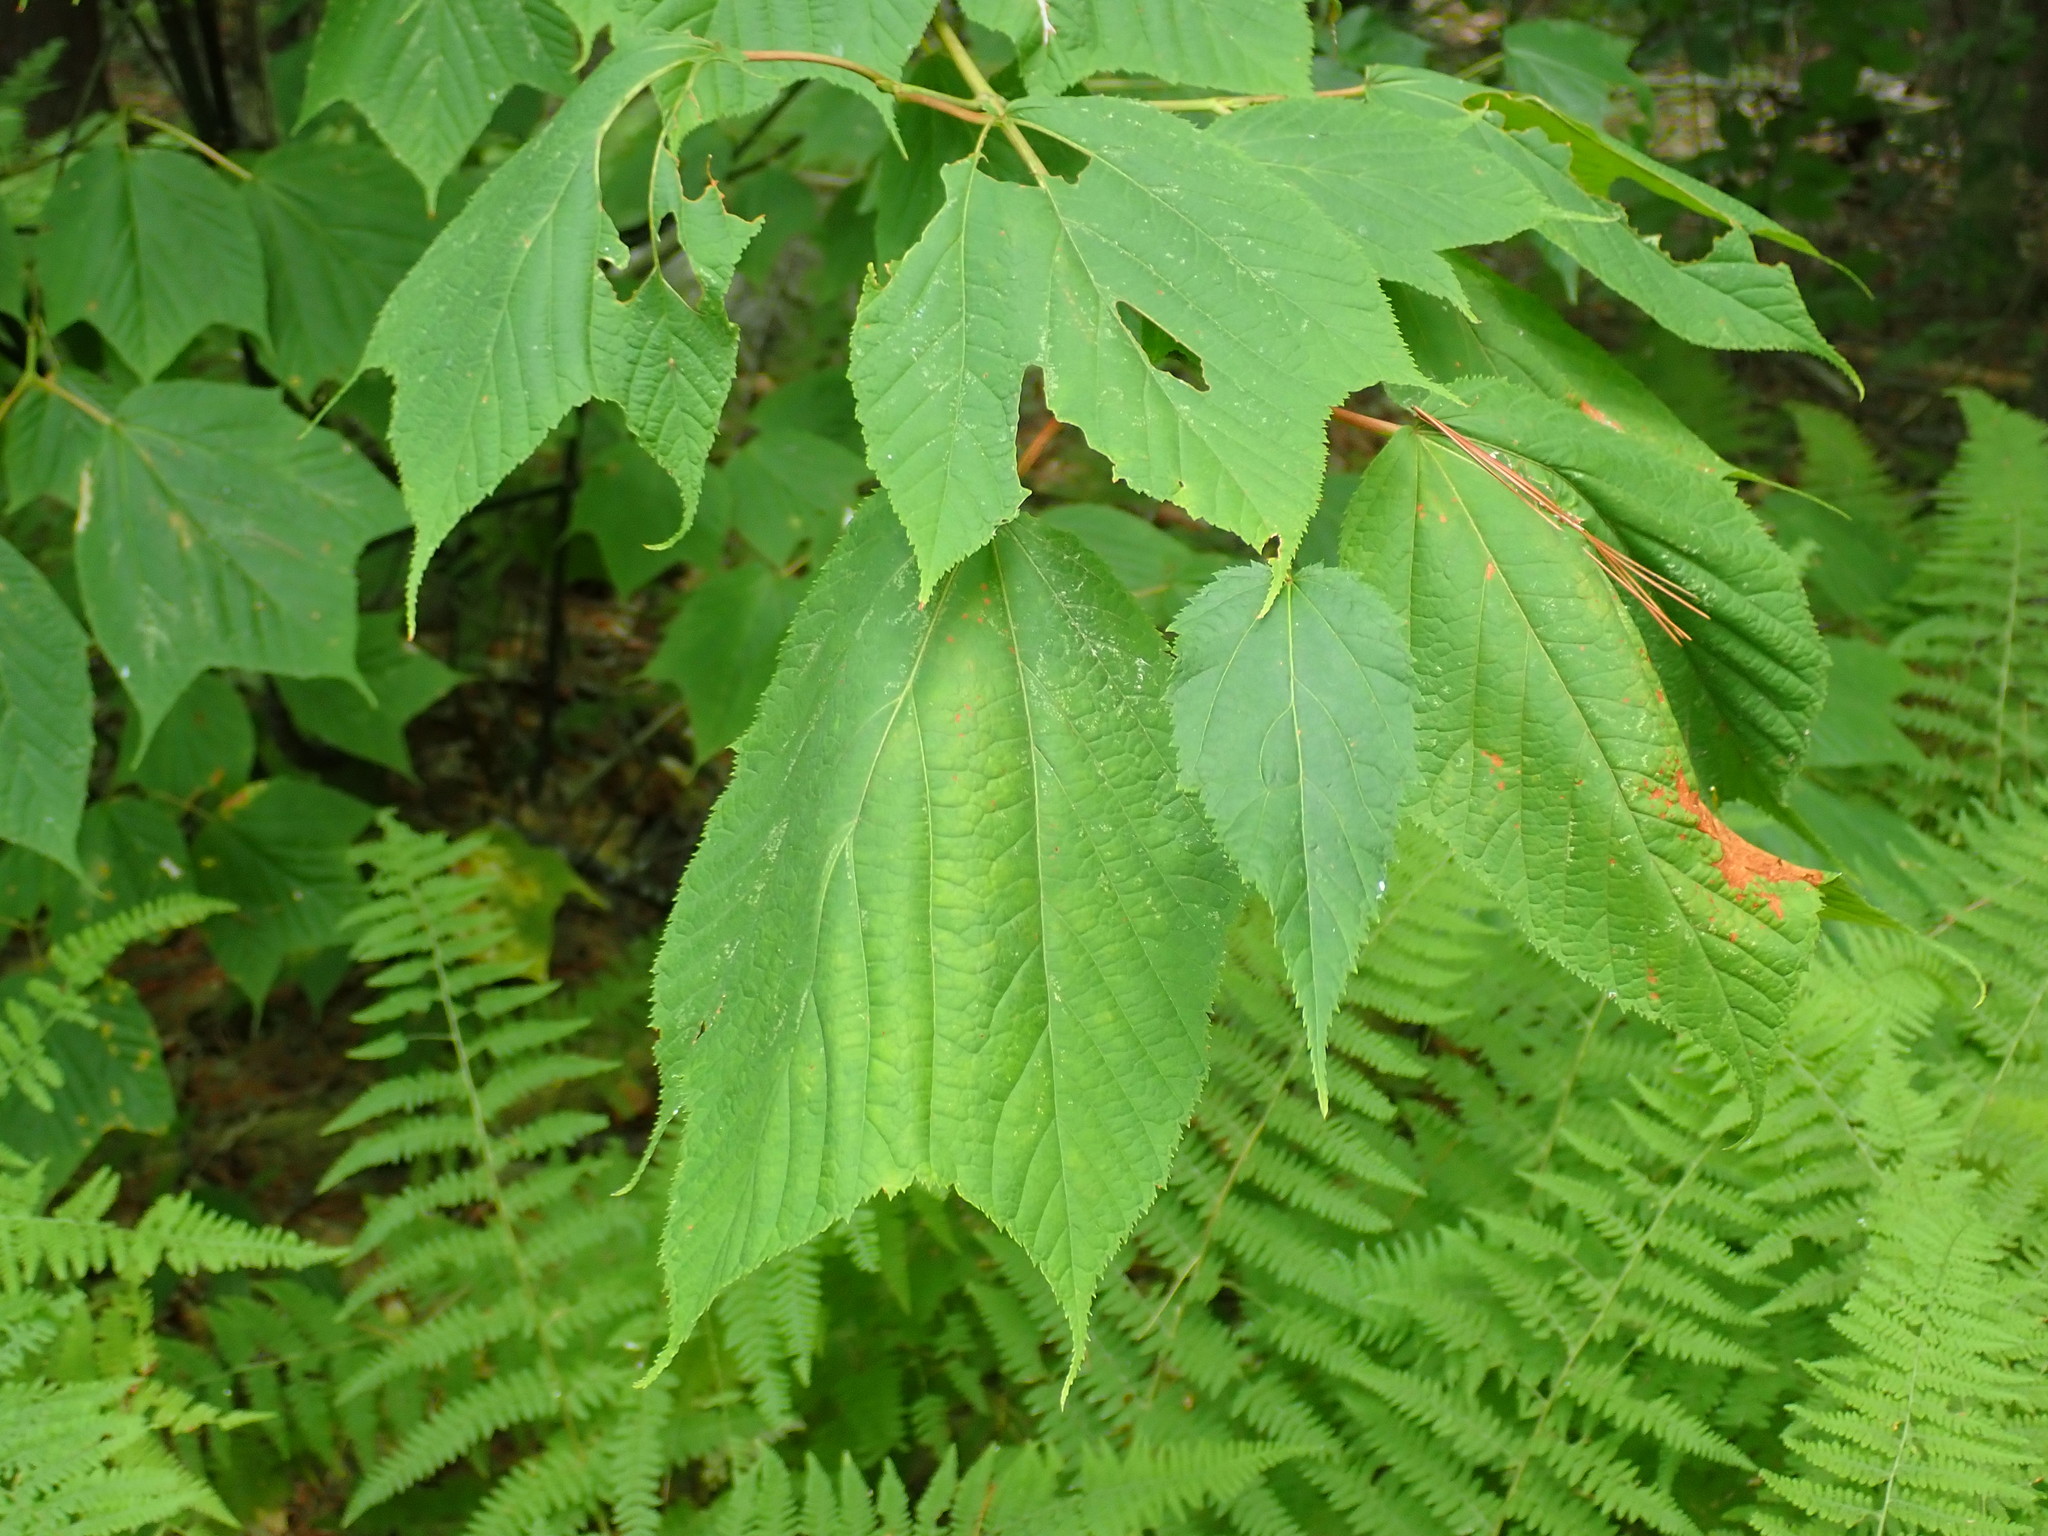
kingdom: Plantae
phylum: Tracheophyta
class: Magnoliopsida
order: Sapindales
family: Sapindaceae
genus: Acer
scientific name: Acer pensylvanicum
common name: Moosewood
